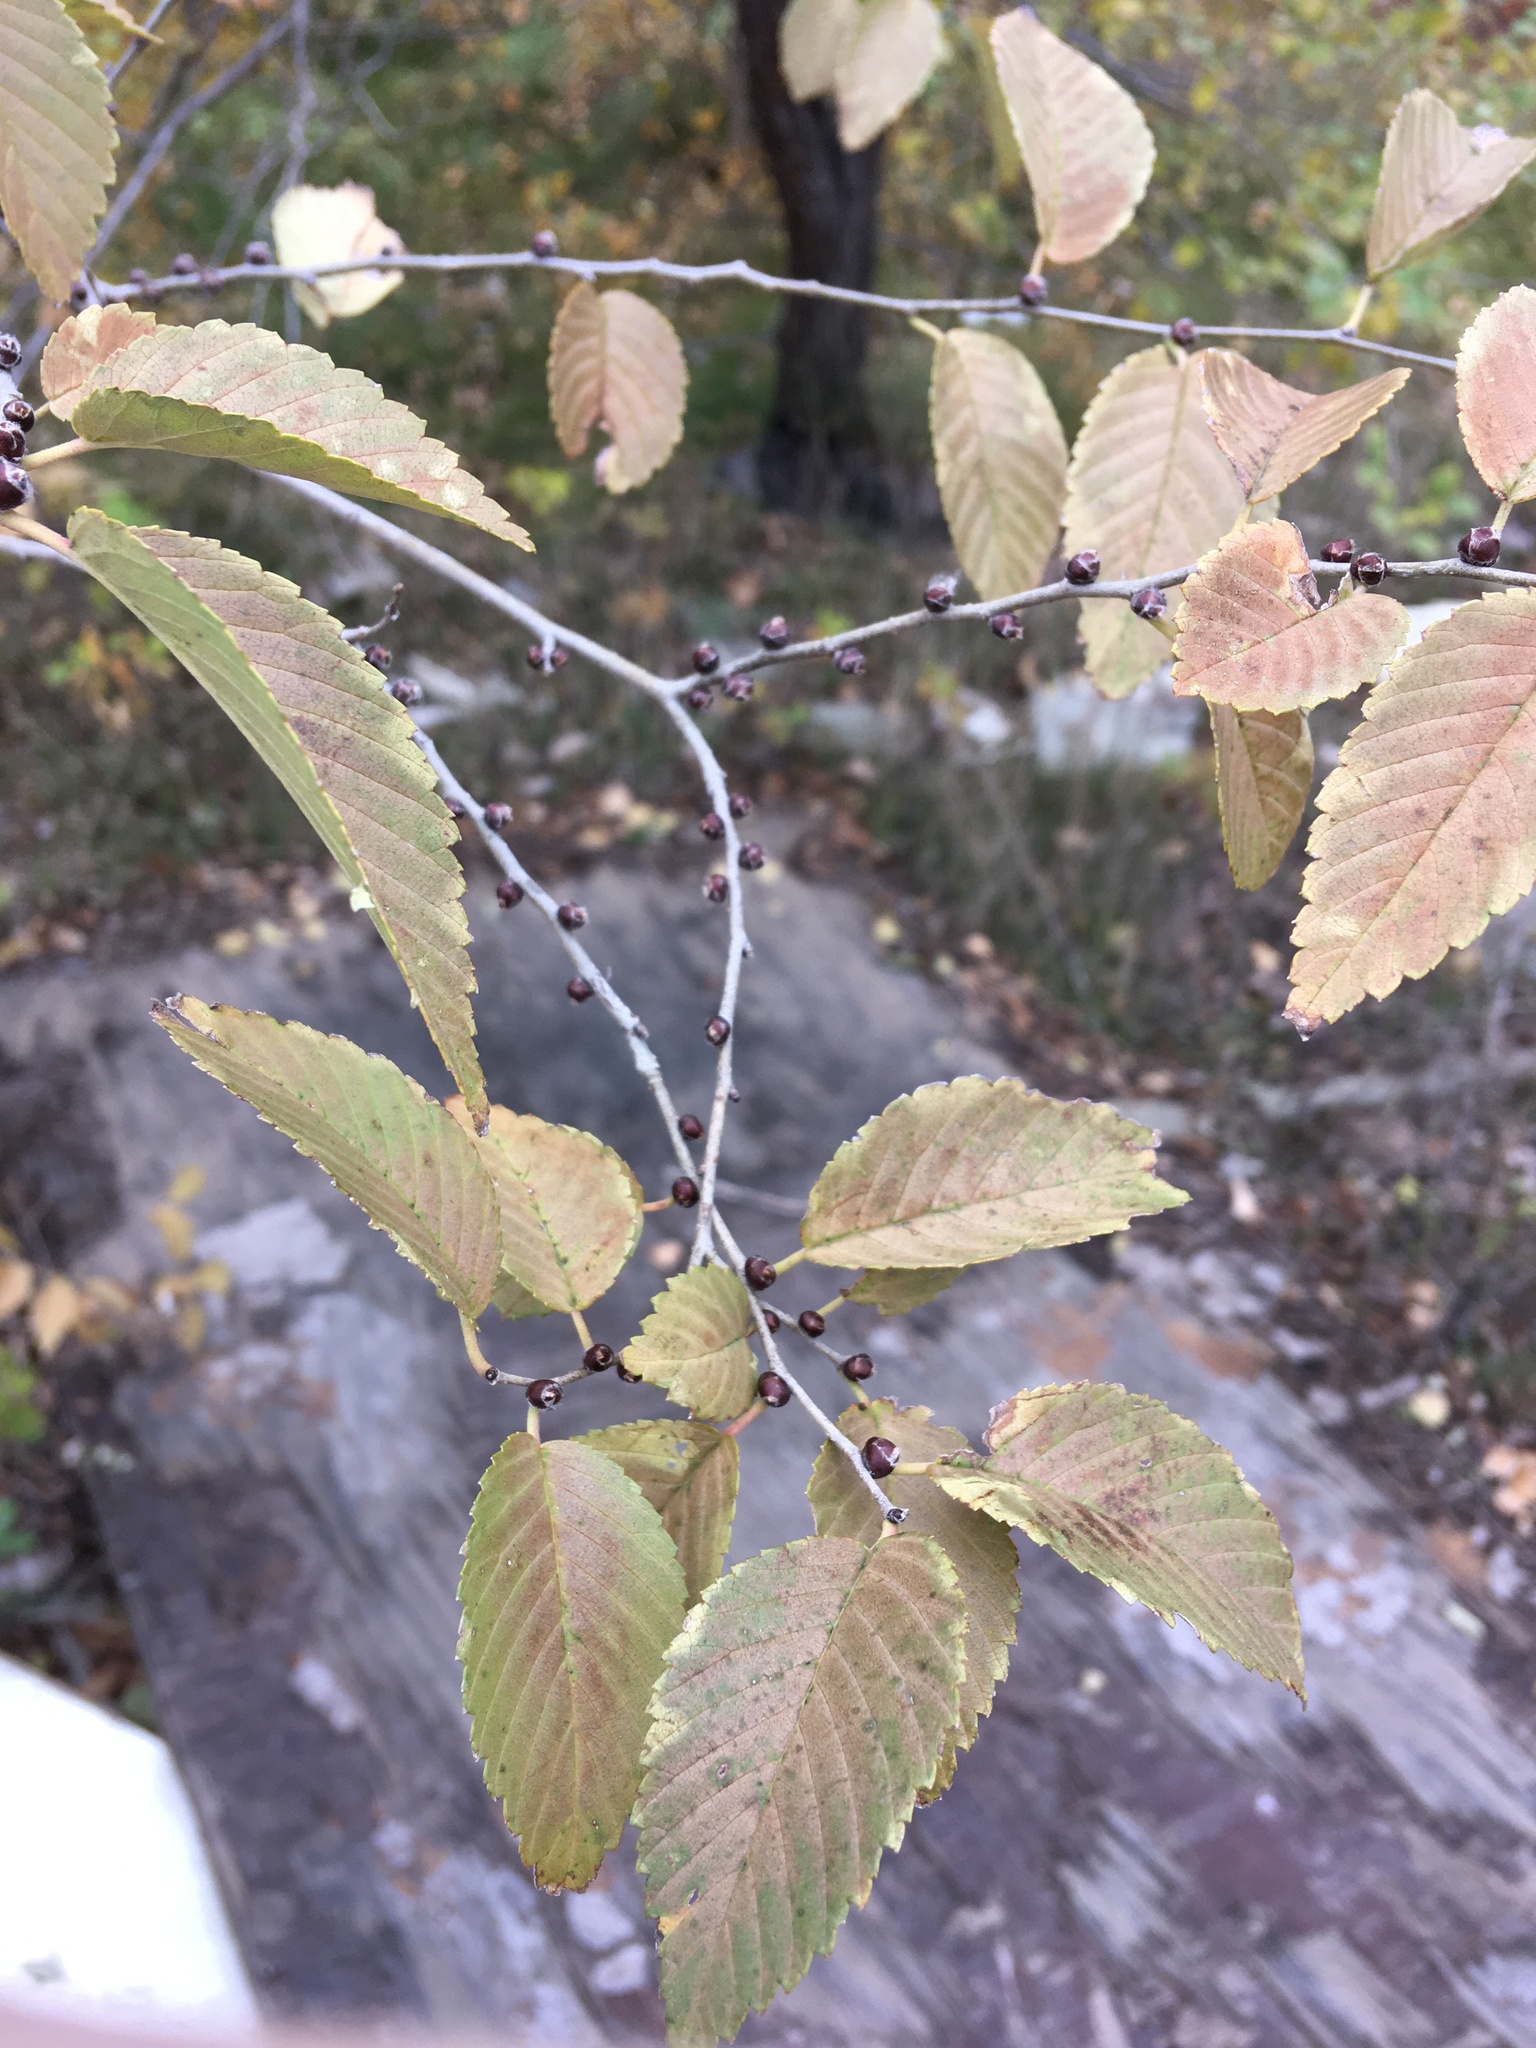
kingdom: Plantae
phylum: Tracheophyta
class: Magnoliopsida
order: Rosales
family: Ulmaceae
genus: Ulmus
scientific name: Ulmus pumila
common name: Siberian elm
